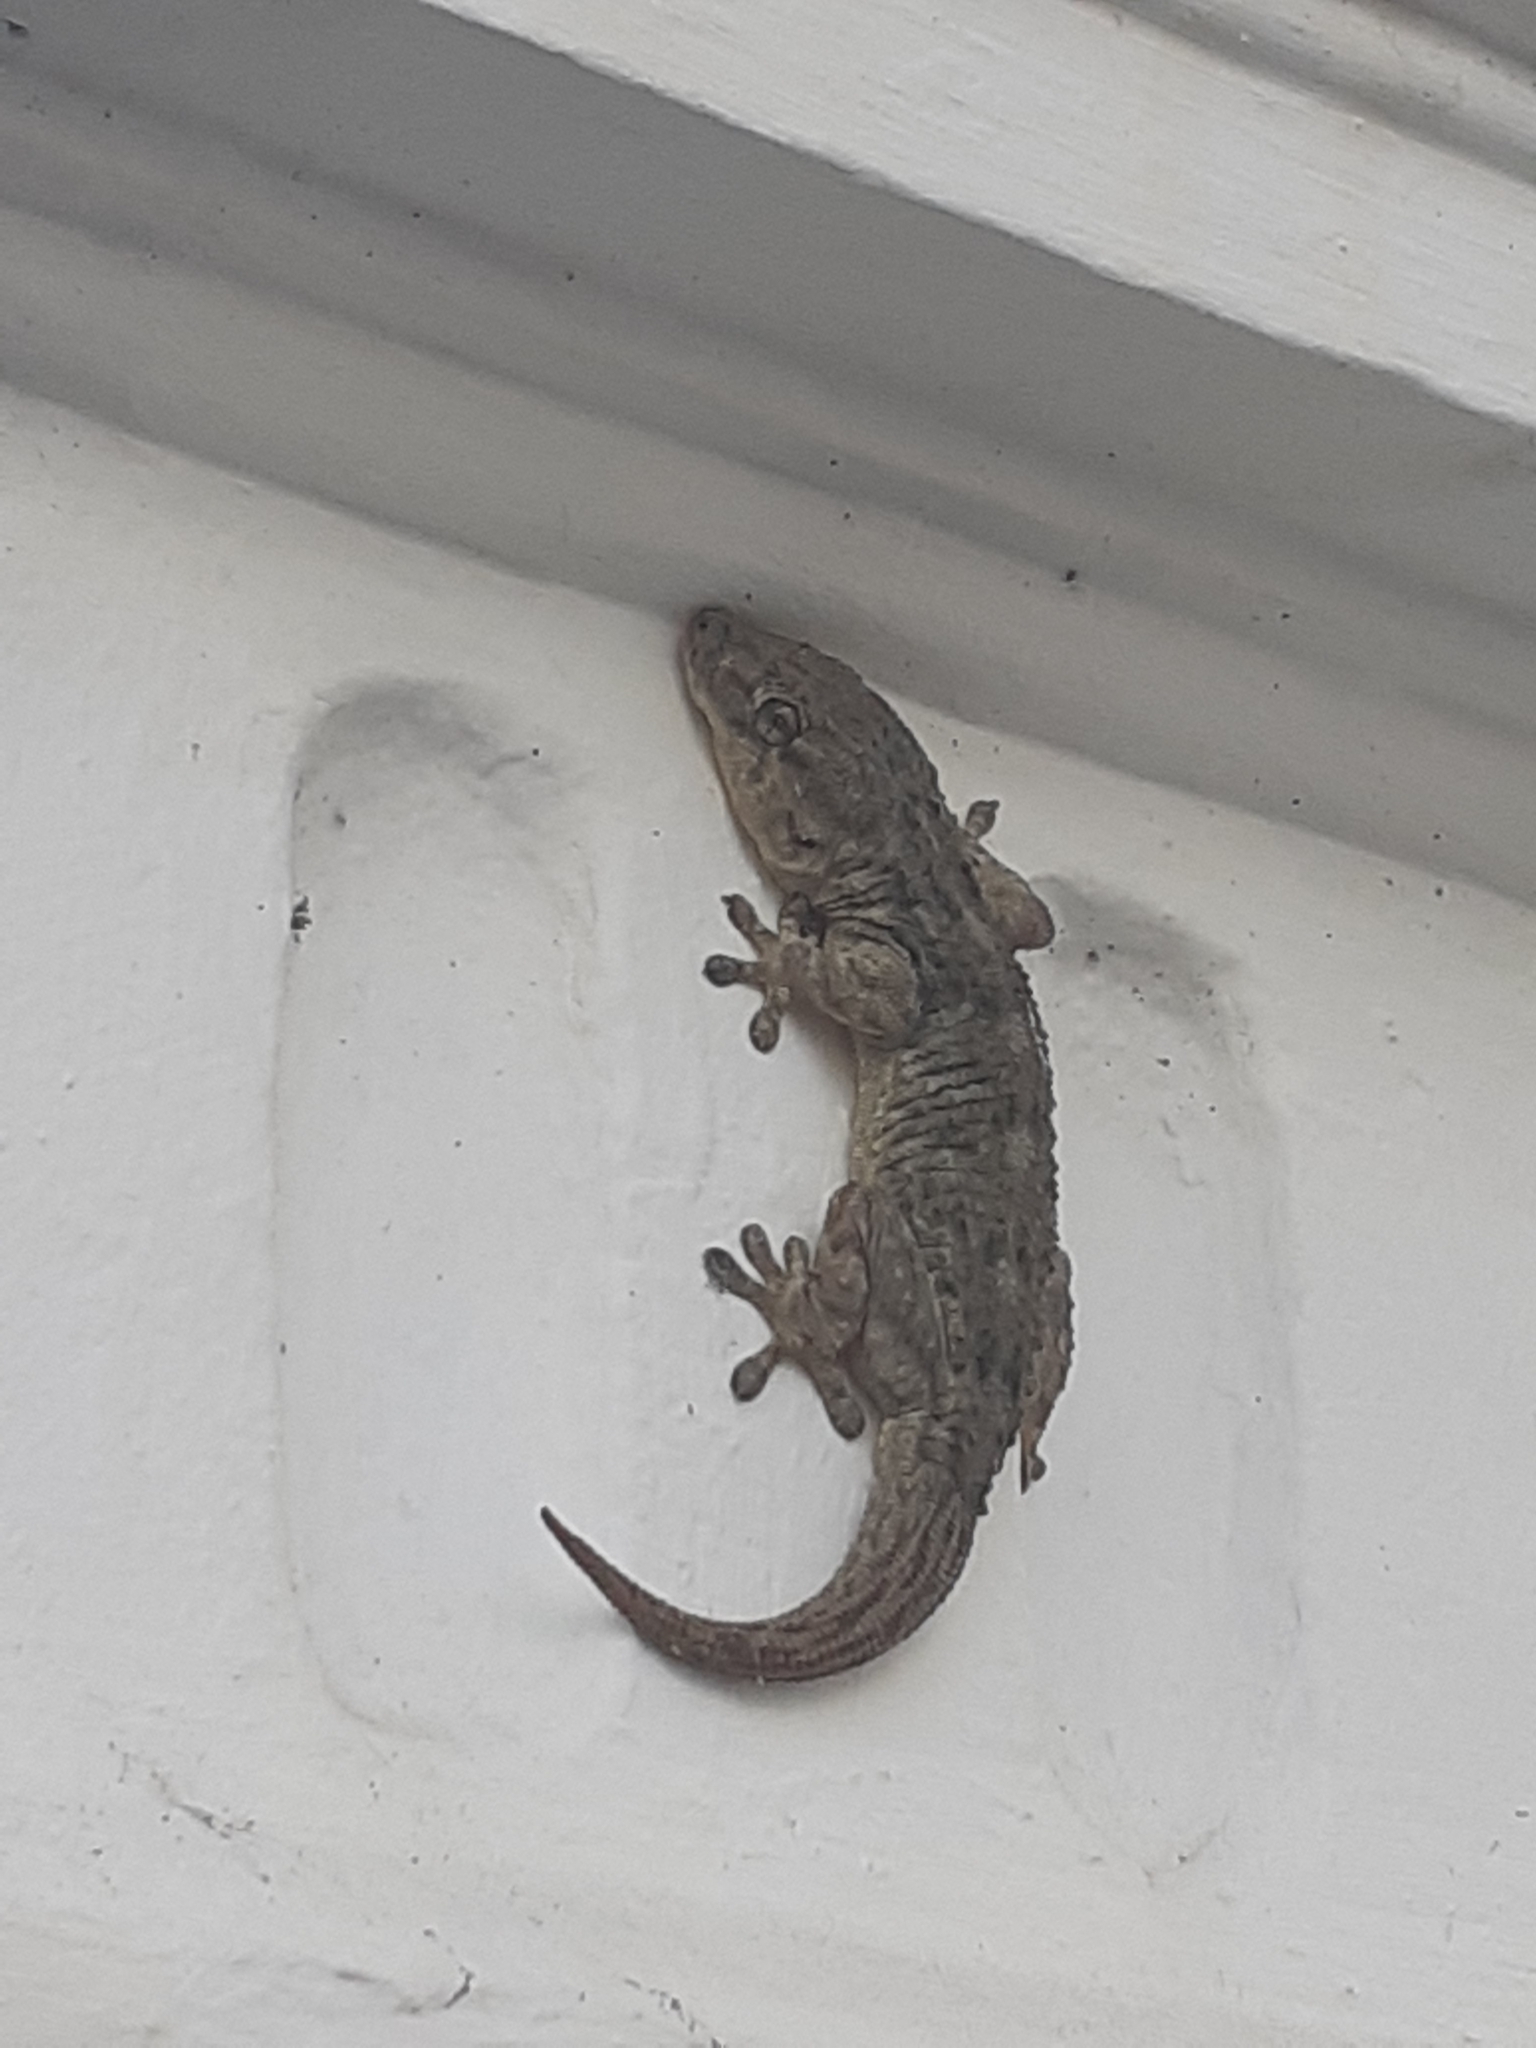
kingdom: Animalia
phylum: Chordata
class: Squamata
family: Phyllodactylidae
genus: Tarentola
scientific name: Tarentola delalandii
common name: Tenerife wall gecko
